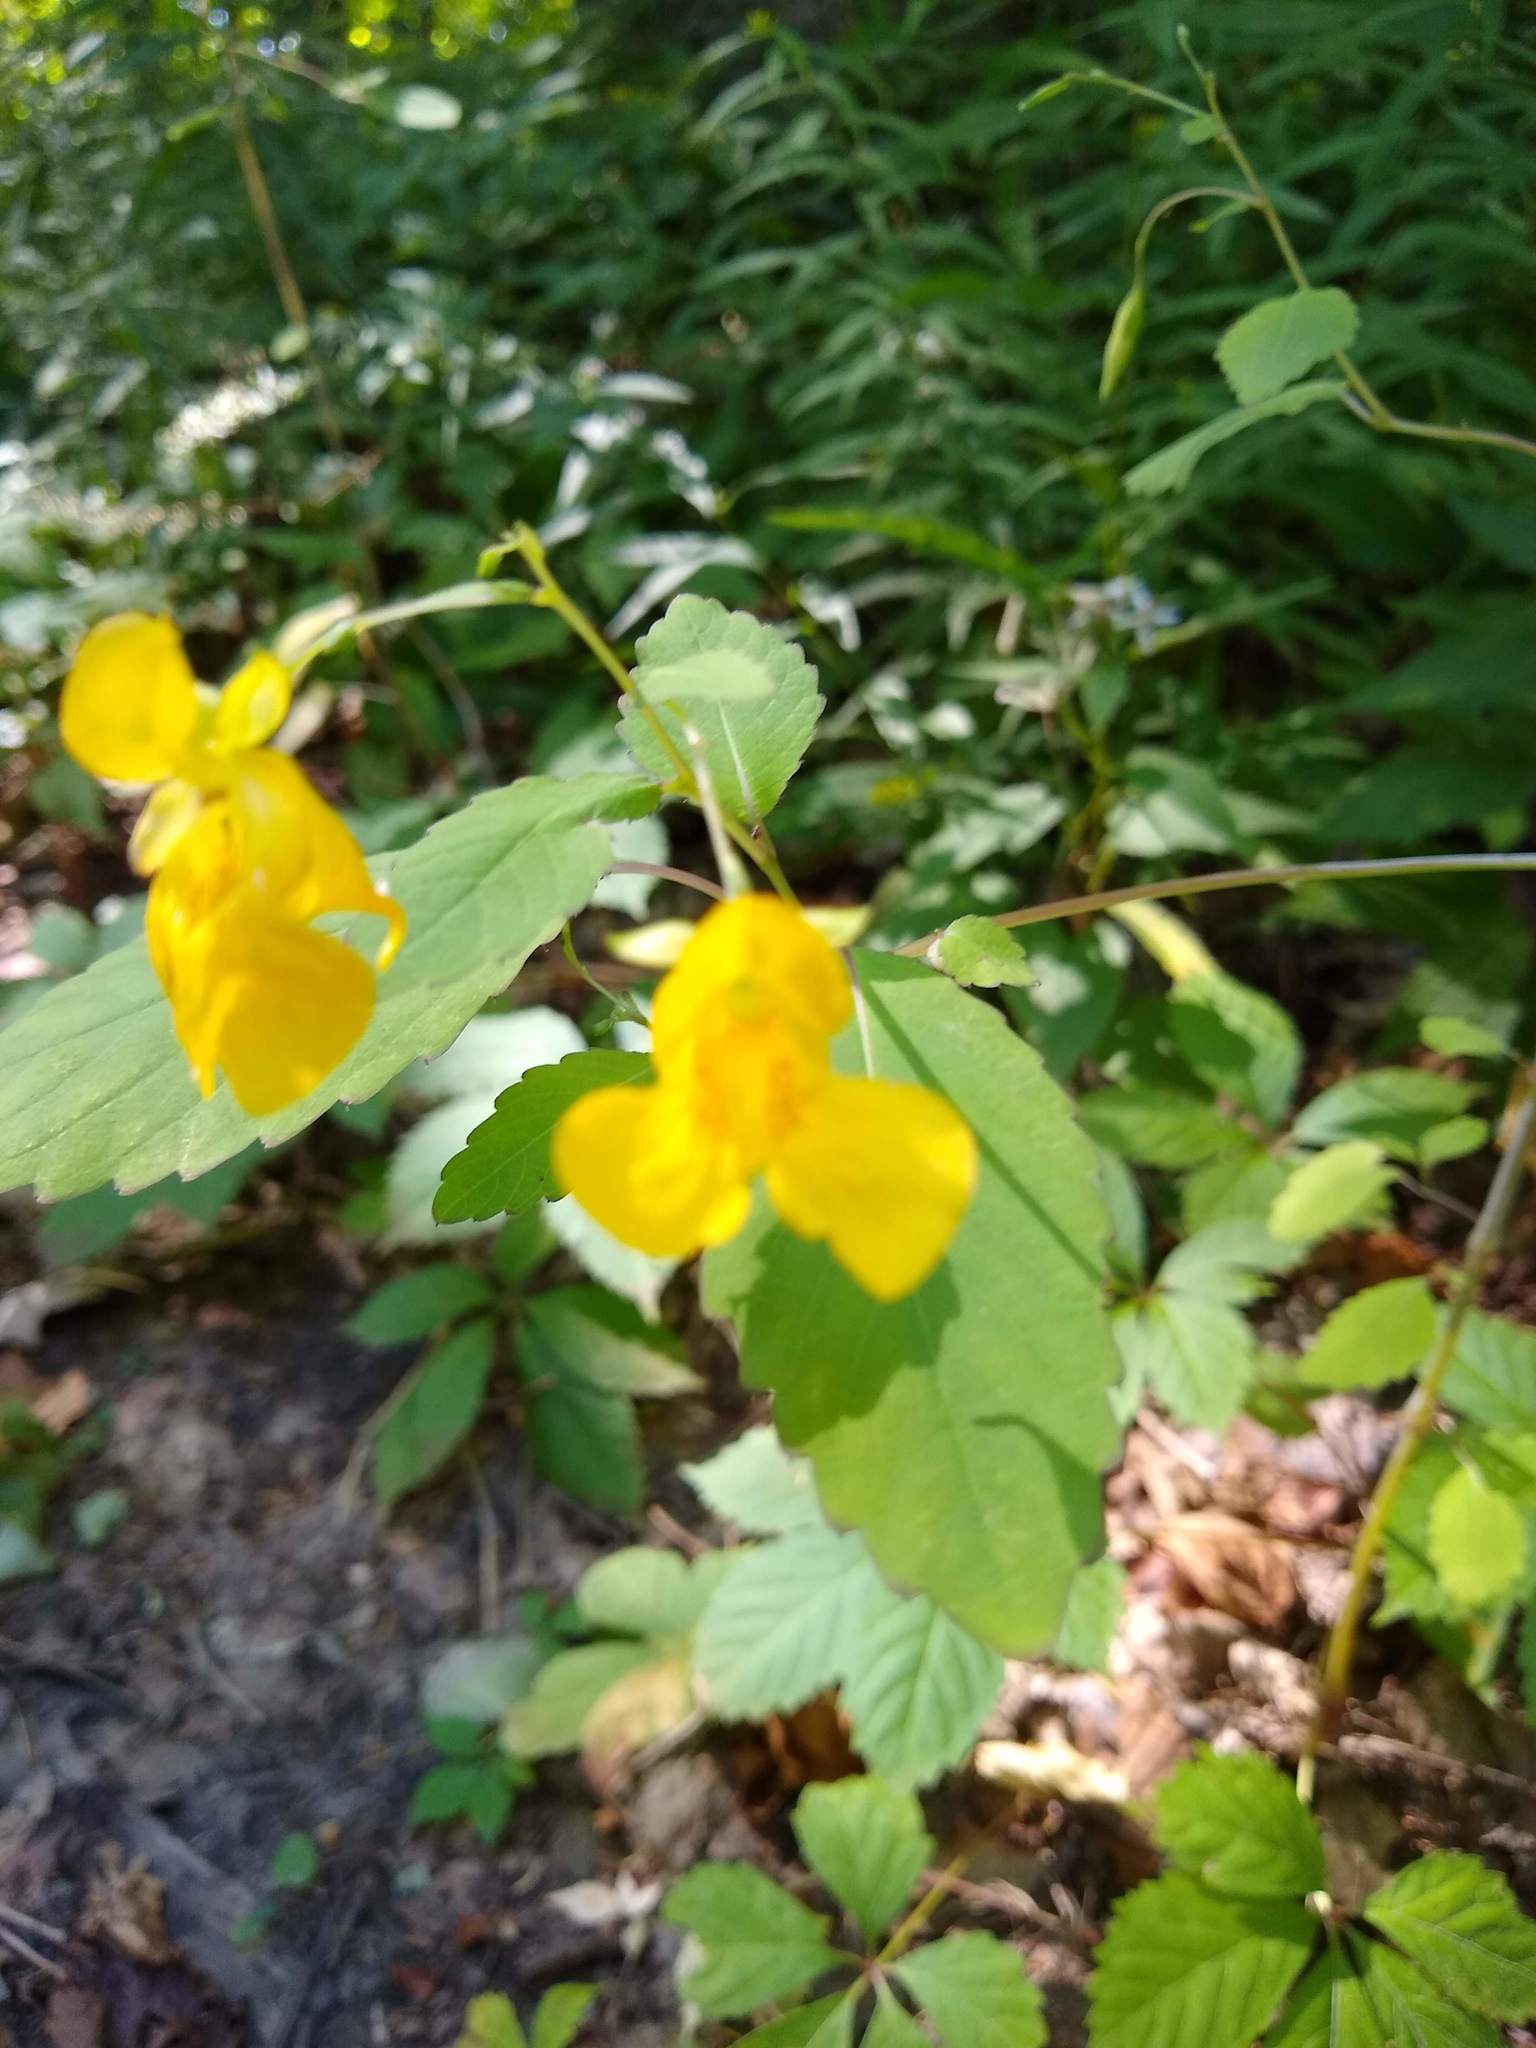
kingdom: Plantae
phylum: Tracheophyta
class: Magnoliopsida
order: Ericales
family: Balsaminaceae
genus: Impatiens
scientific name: Impatiens pallida
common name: Pale snapweed
